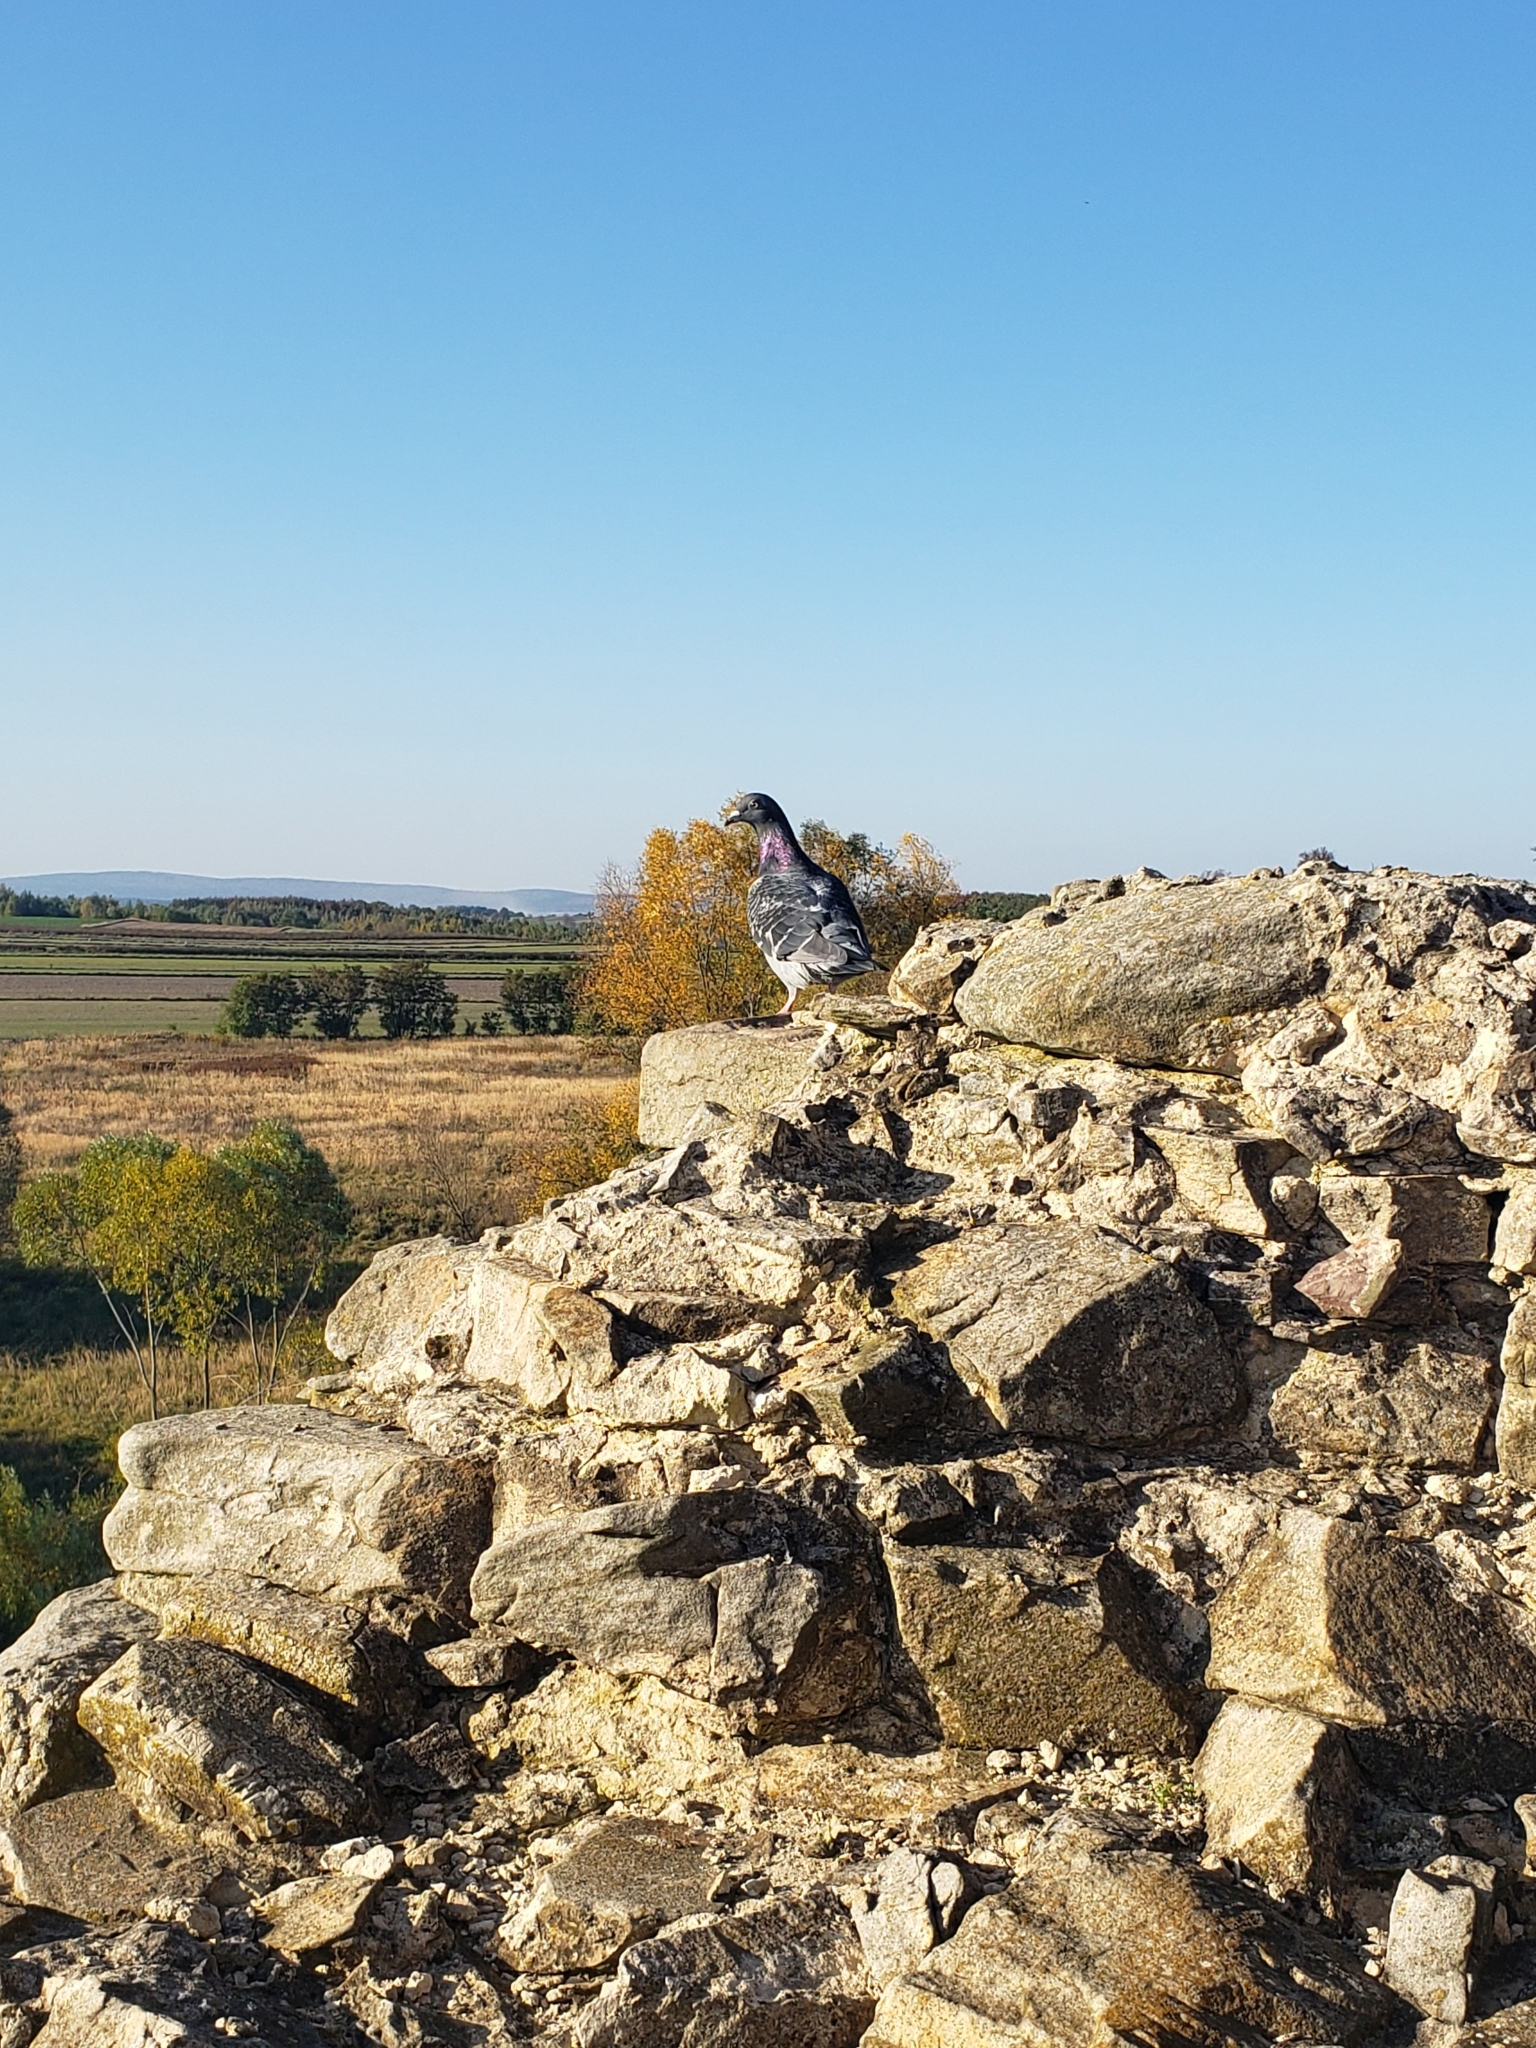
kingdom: Animalia
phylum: Chordata
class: Aves
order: Columbiformes
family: Columbidae
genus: Columba
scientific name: Columba livia
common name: Rock pigeon
